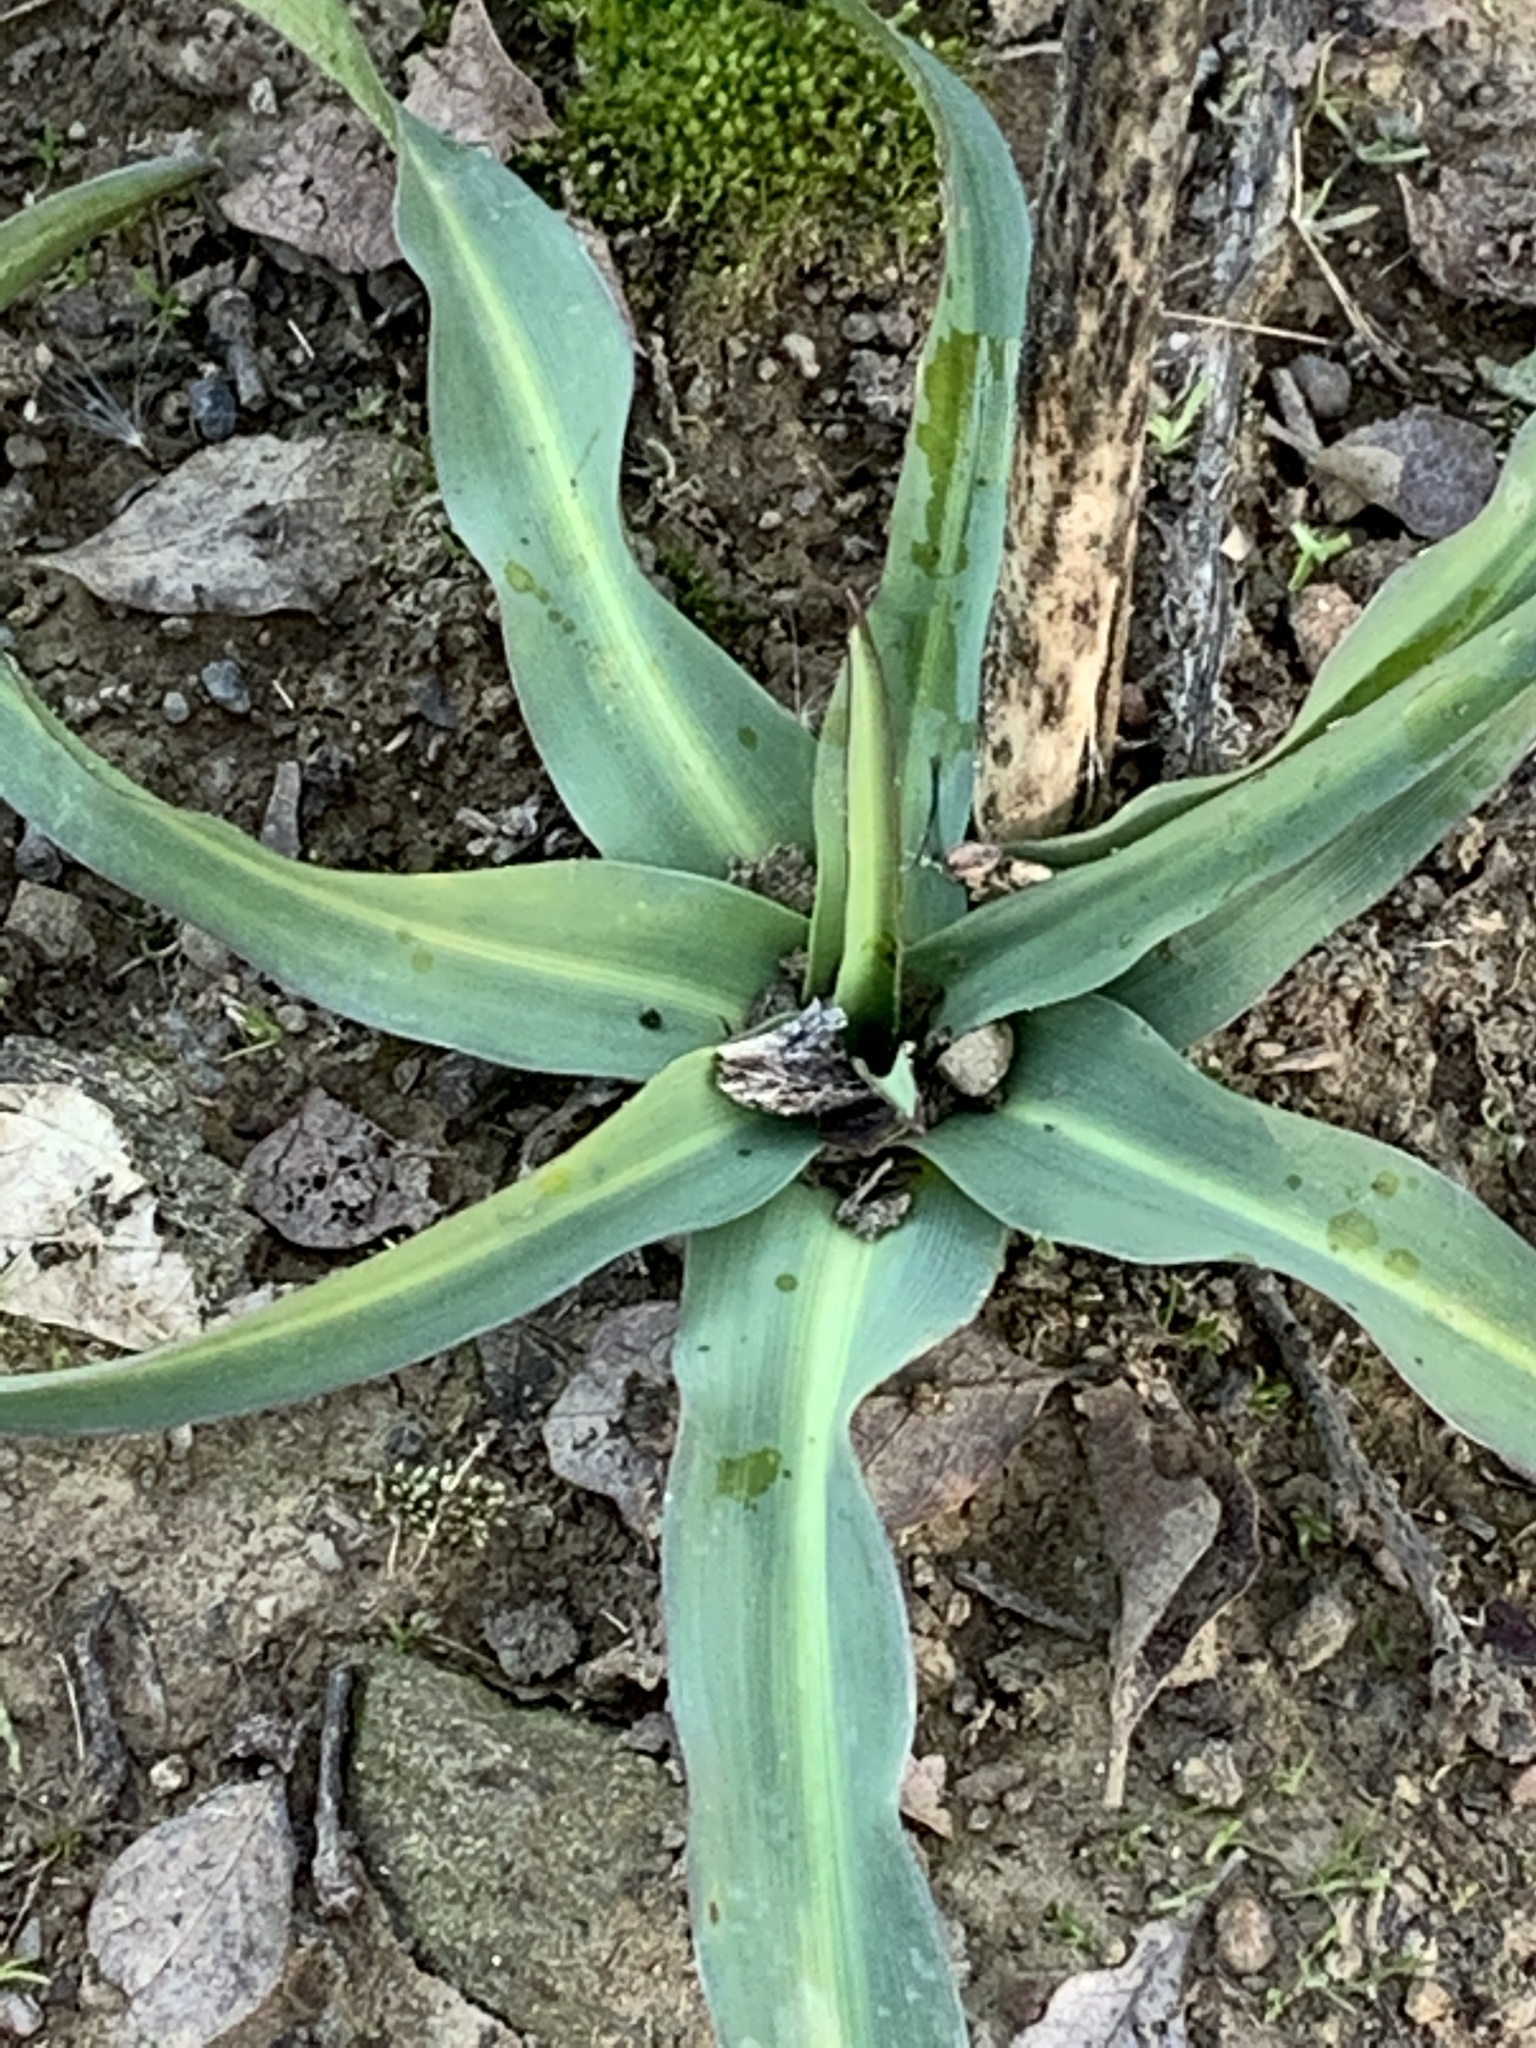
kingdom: Plantae
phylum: Tracheophyta
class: Liliopsida
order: Asparagales
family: Asparagaceae
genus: Chlorogalum
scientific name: Chlorogalum pomeridianum
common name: Amole
